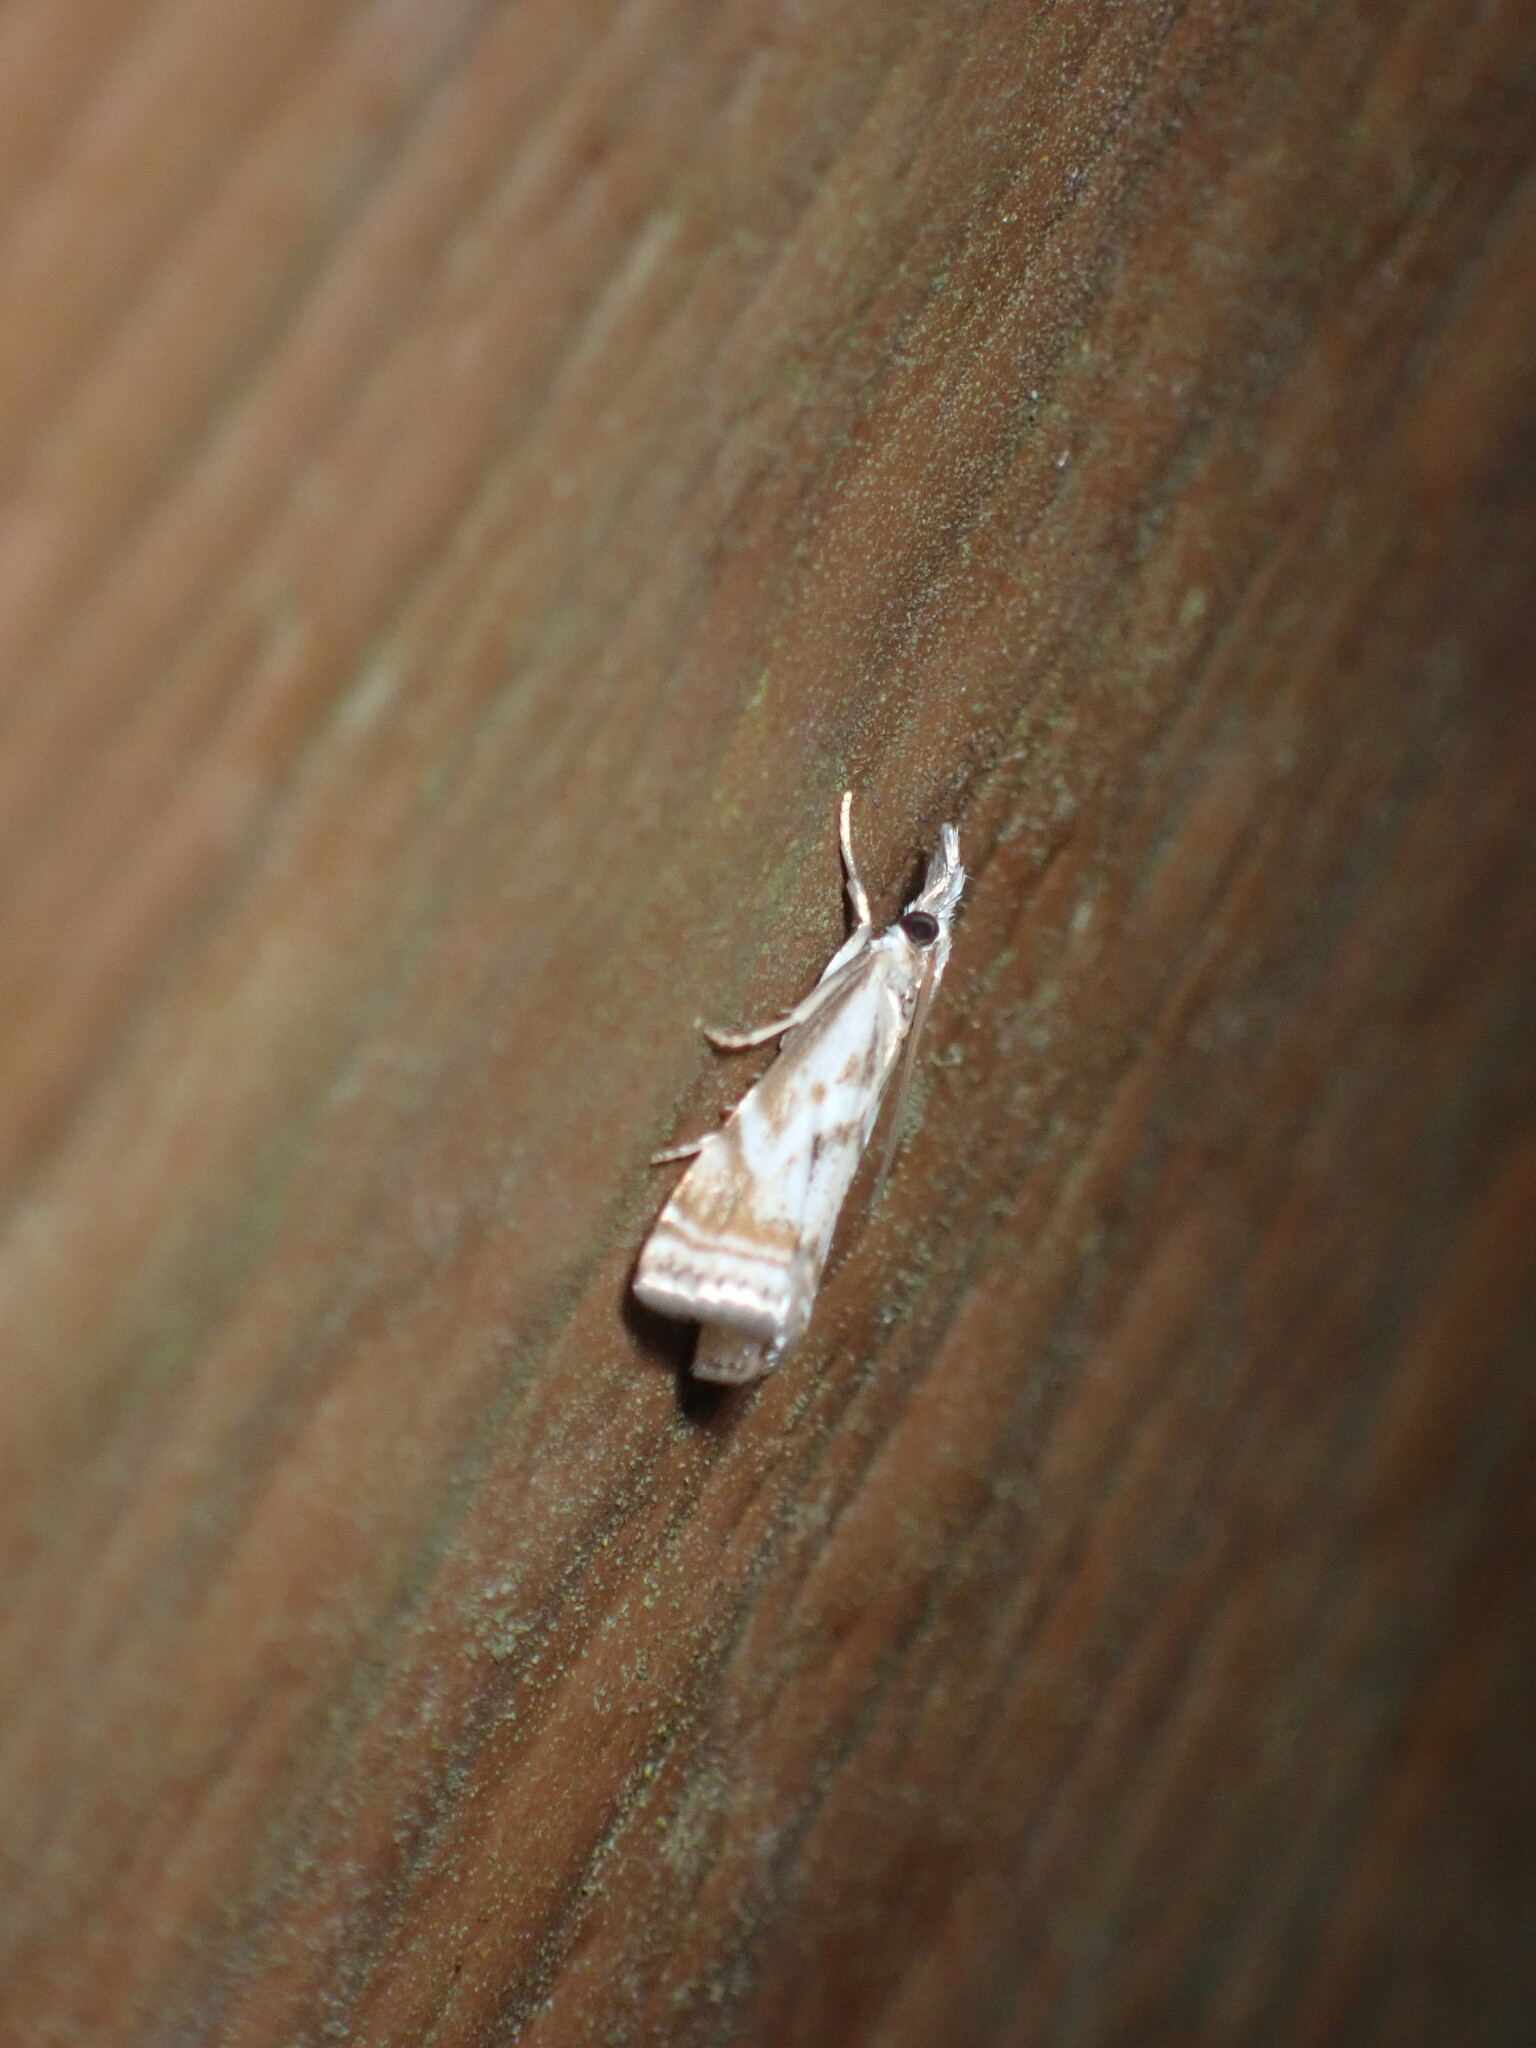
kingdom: Animalia
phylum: Arthropoda
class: Insecta
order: Lepidoptera
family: Crambidae
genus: Microcrambus
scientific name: Microcrambus elegans
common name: Elegant grass-veneer
